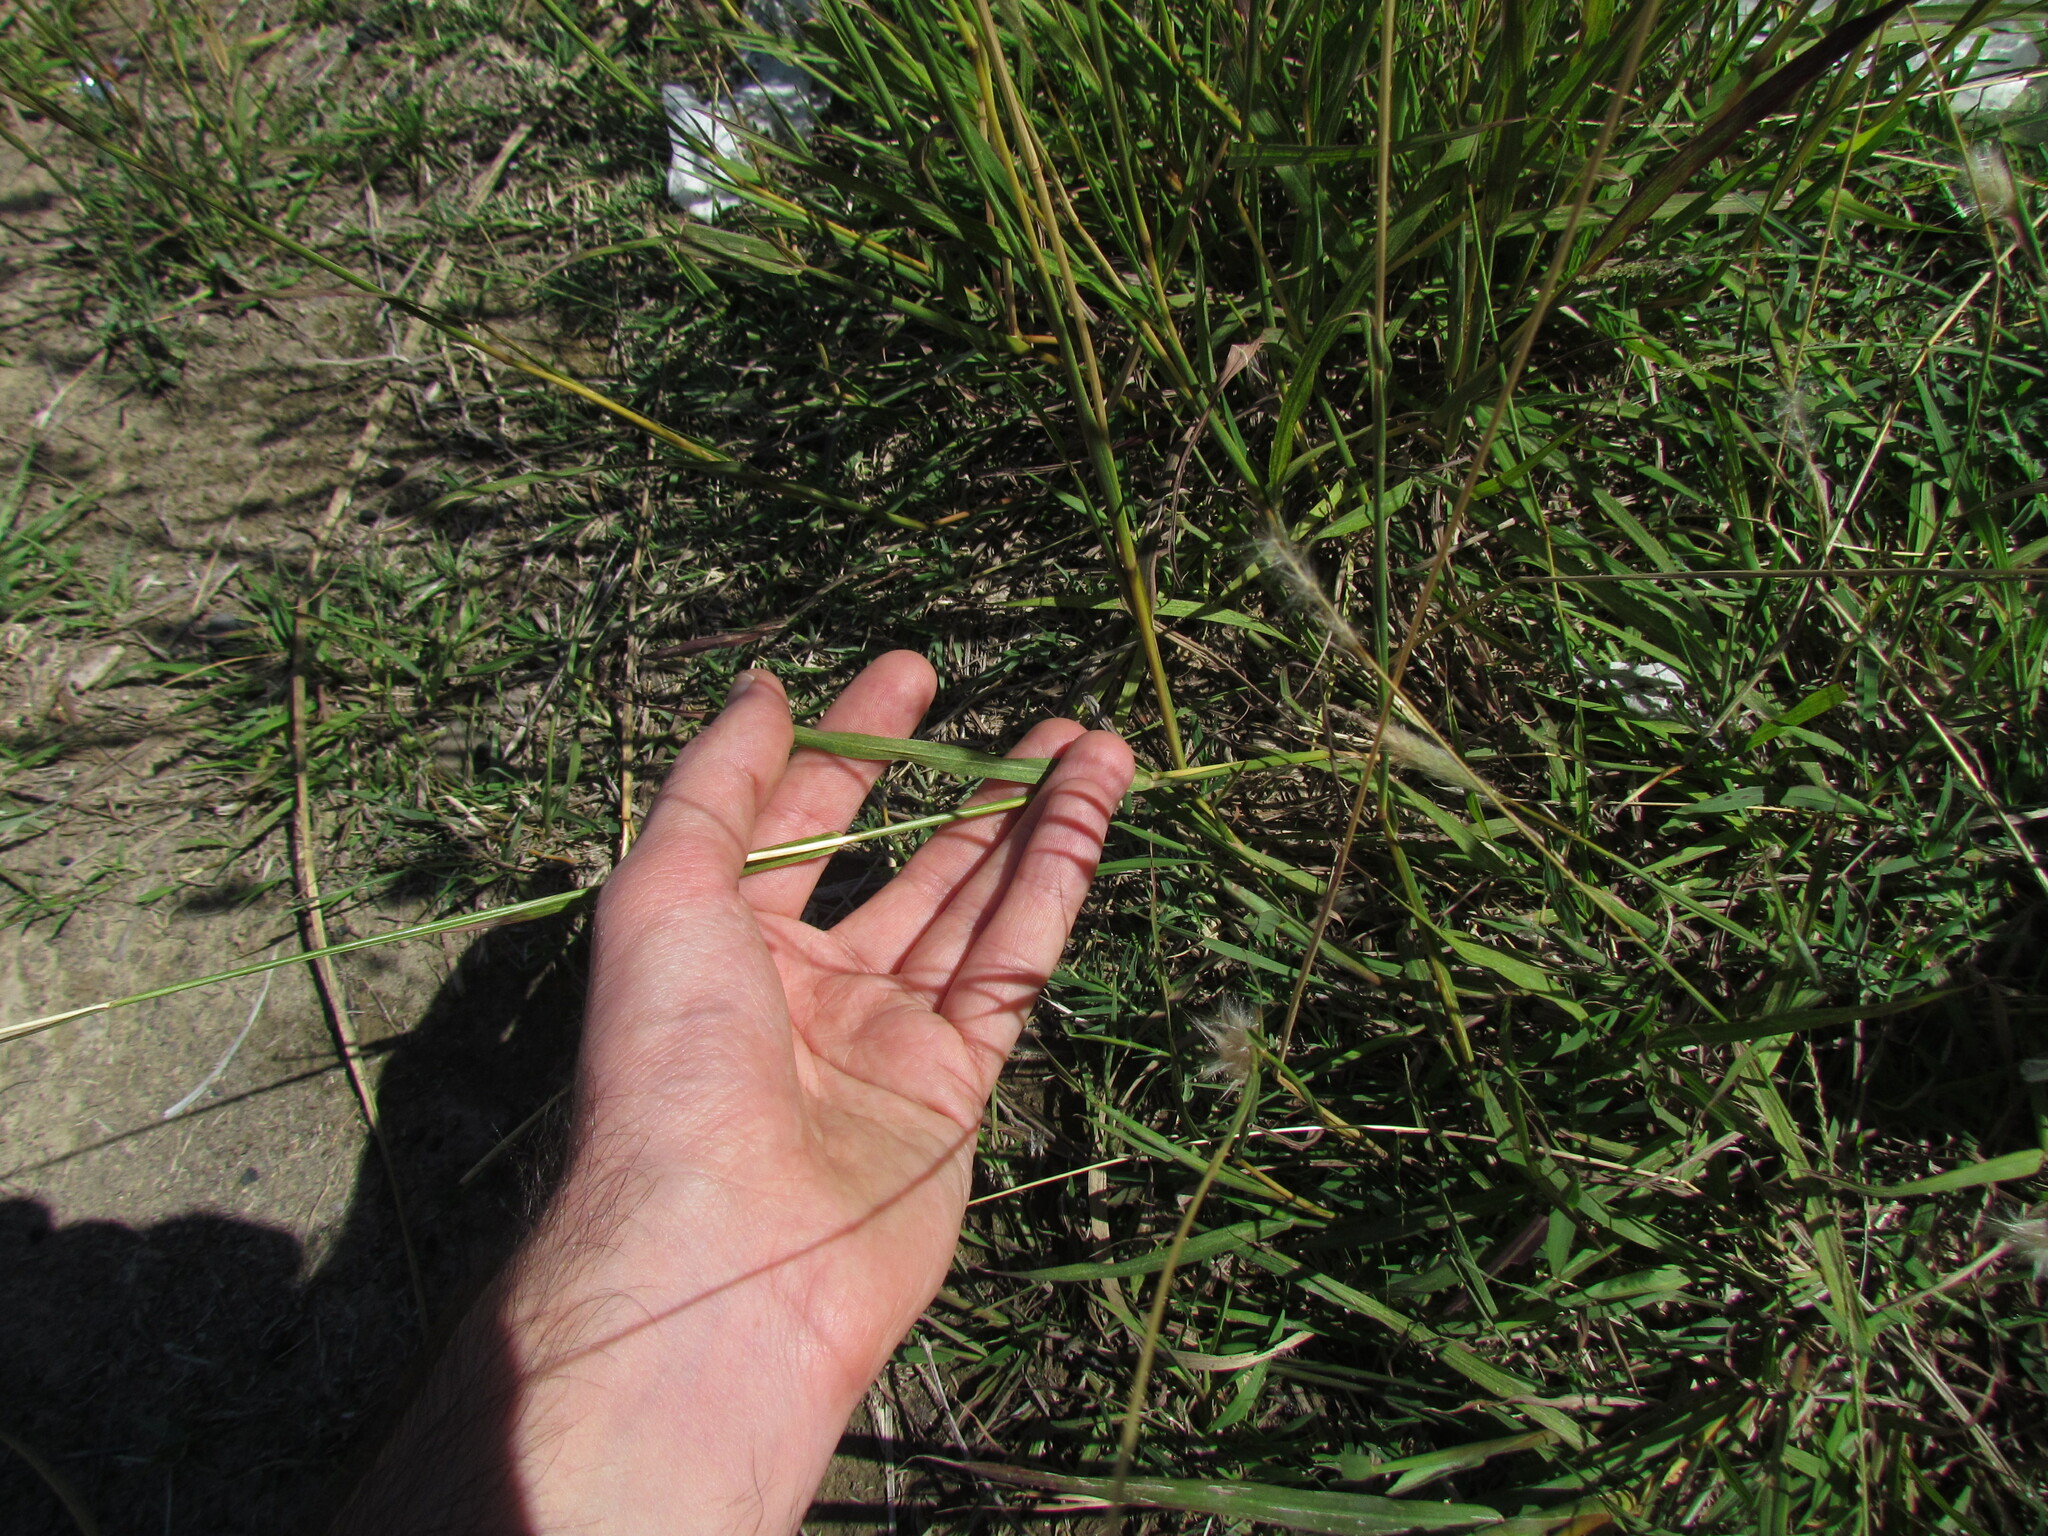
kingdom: Plantae
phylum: Tracheophyta
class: Liliopsida
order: Poales
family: Poaceae
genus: Bothriochloa
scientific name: Bothriochloa laguroides
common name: Silver bluestem
